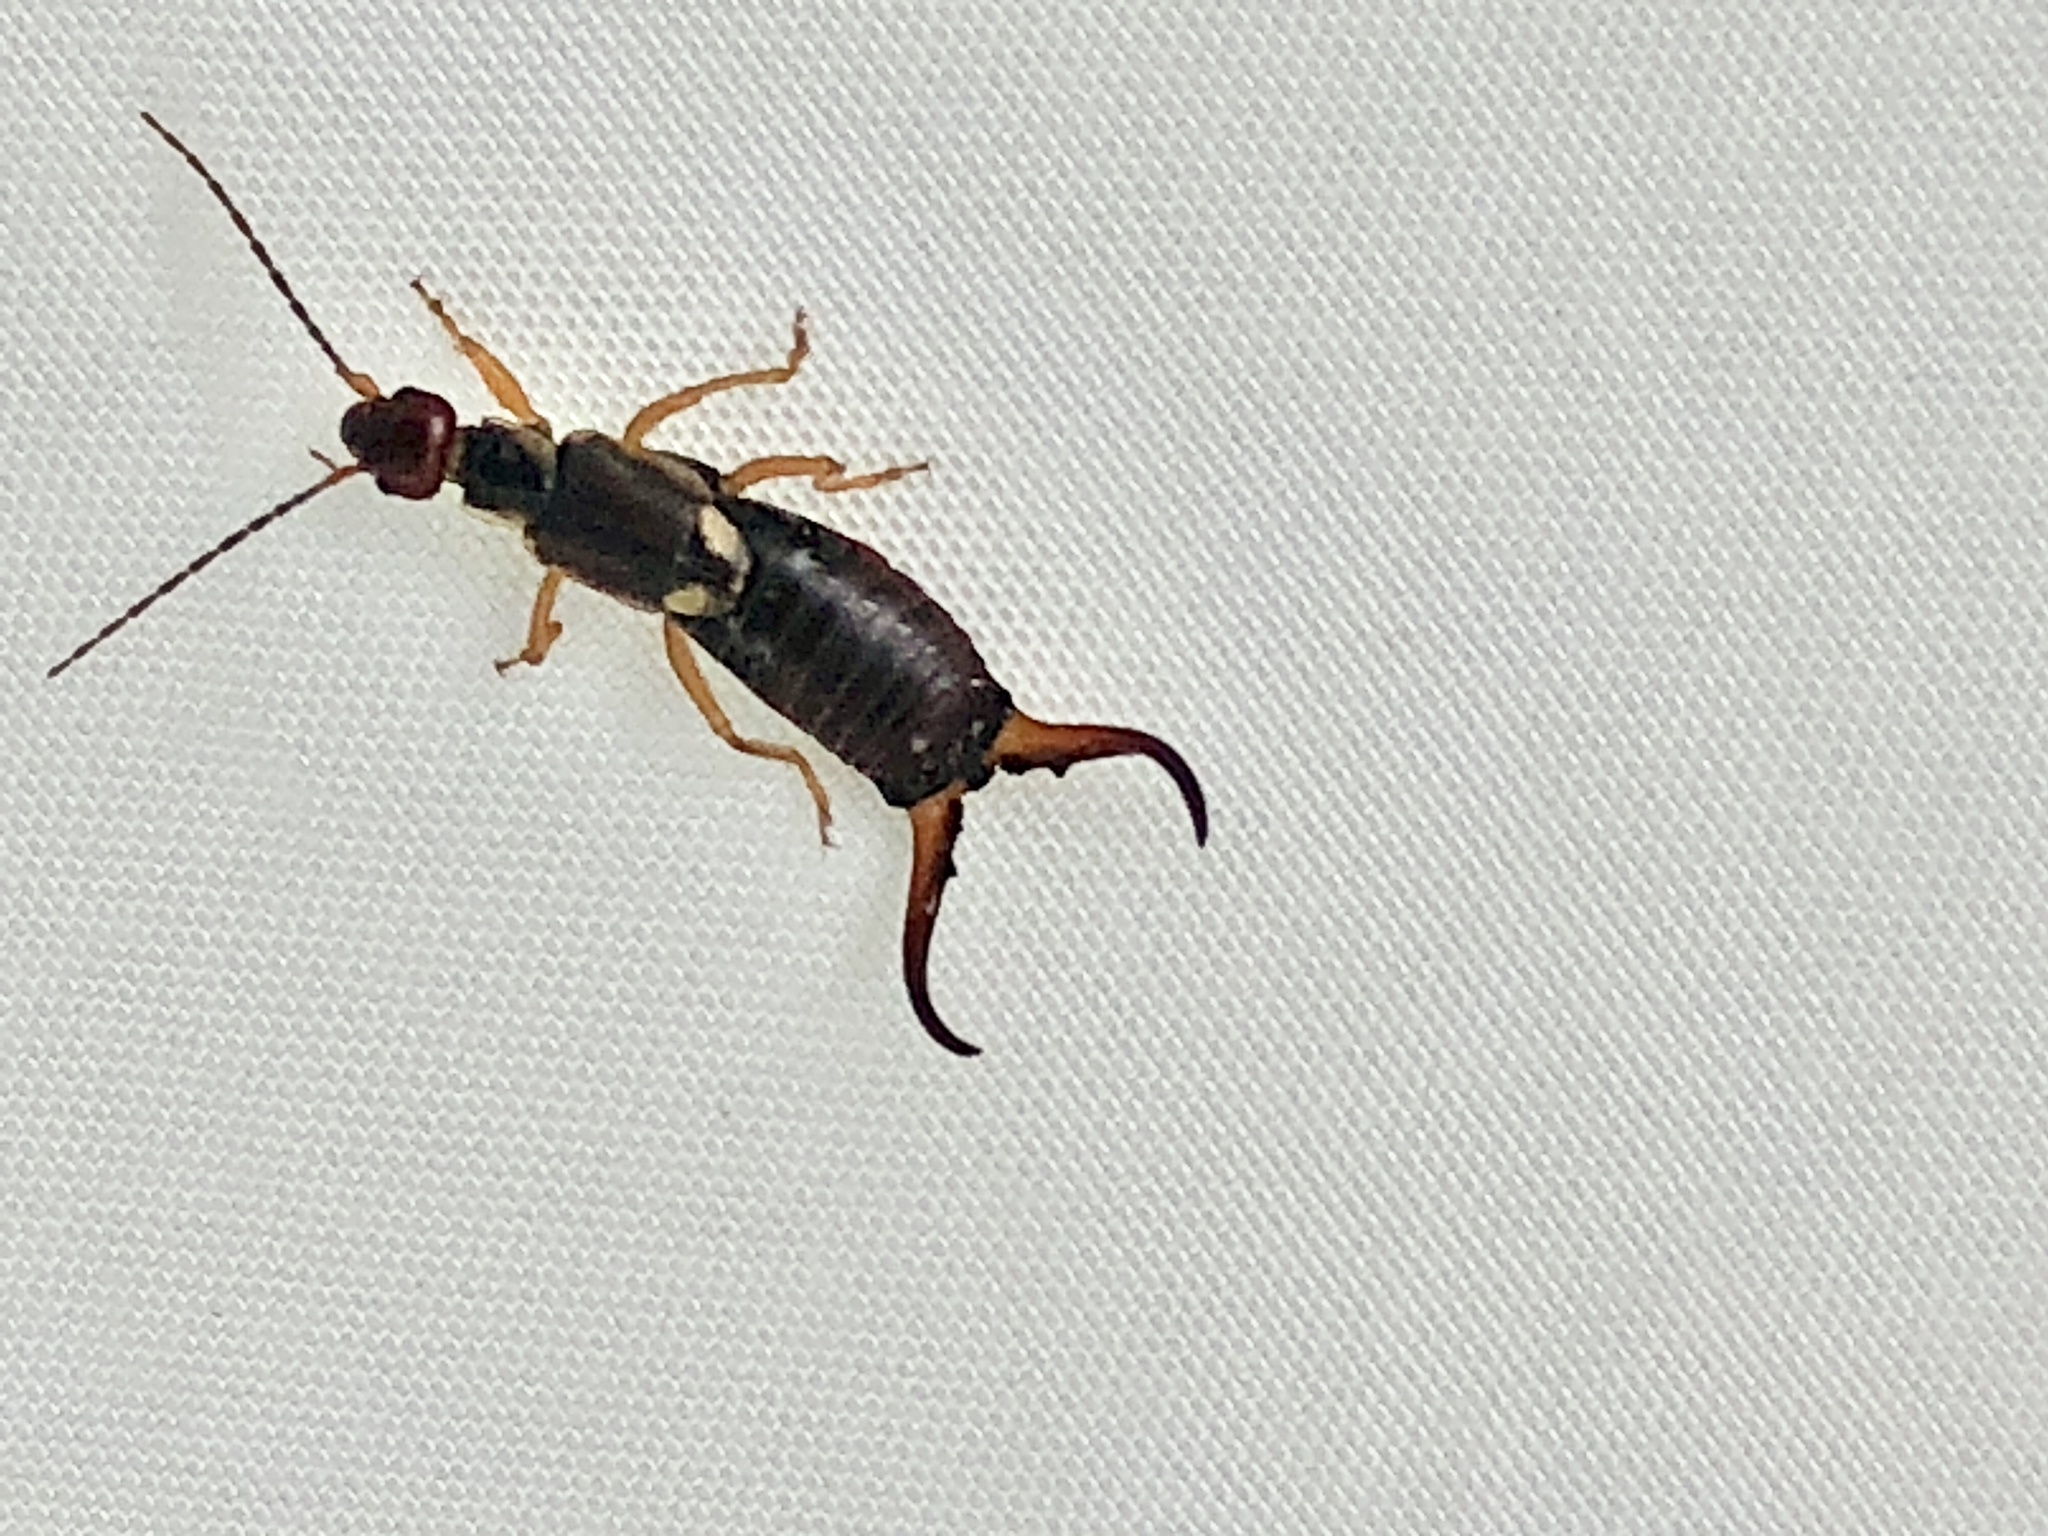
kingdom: Animalia
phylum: Arthropoda
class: Insecta
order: Dermaptera
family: Forficulidae
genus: Forficula
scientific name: Forficula
